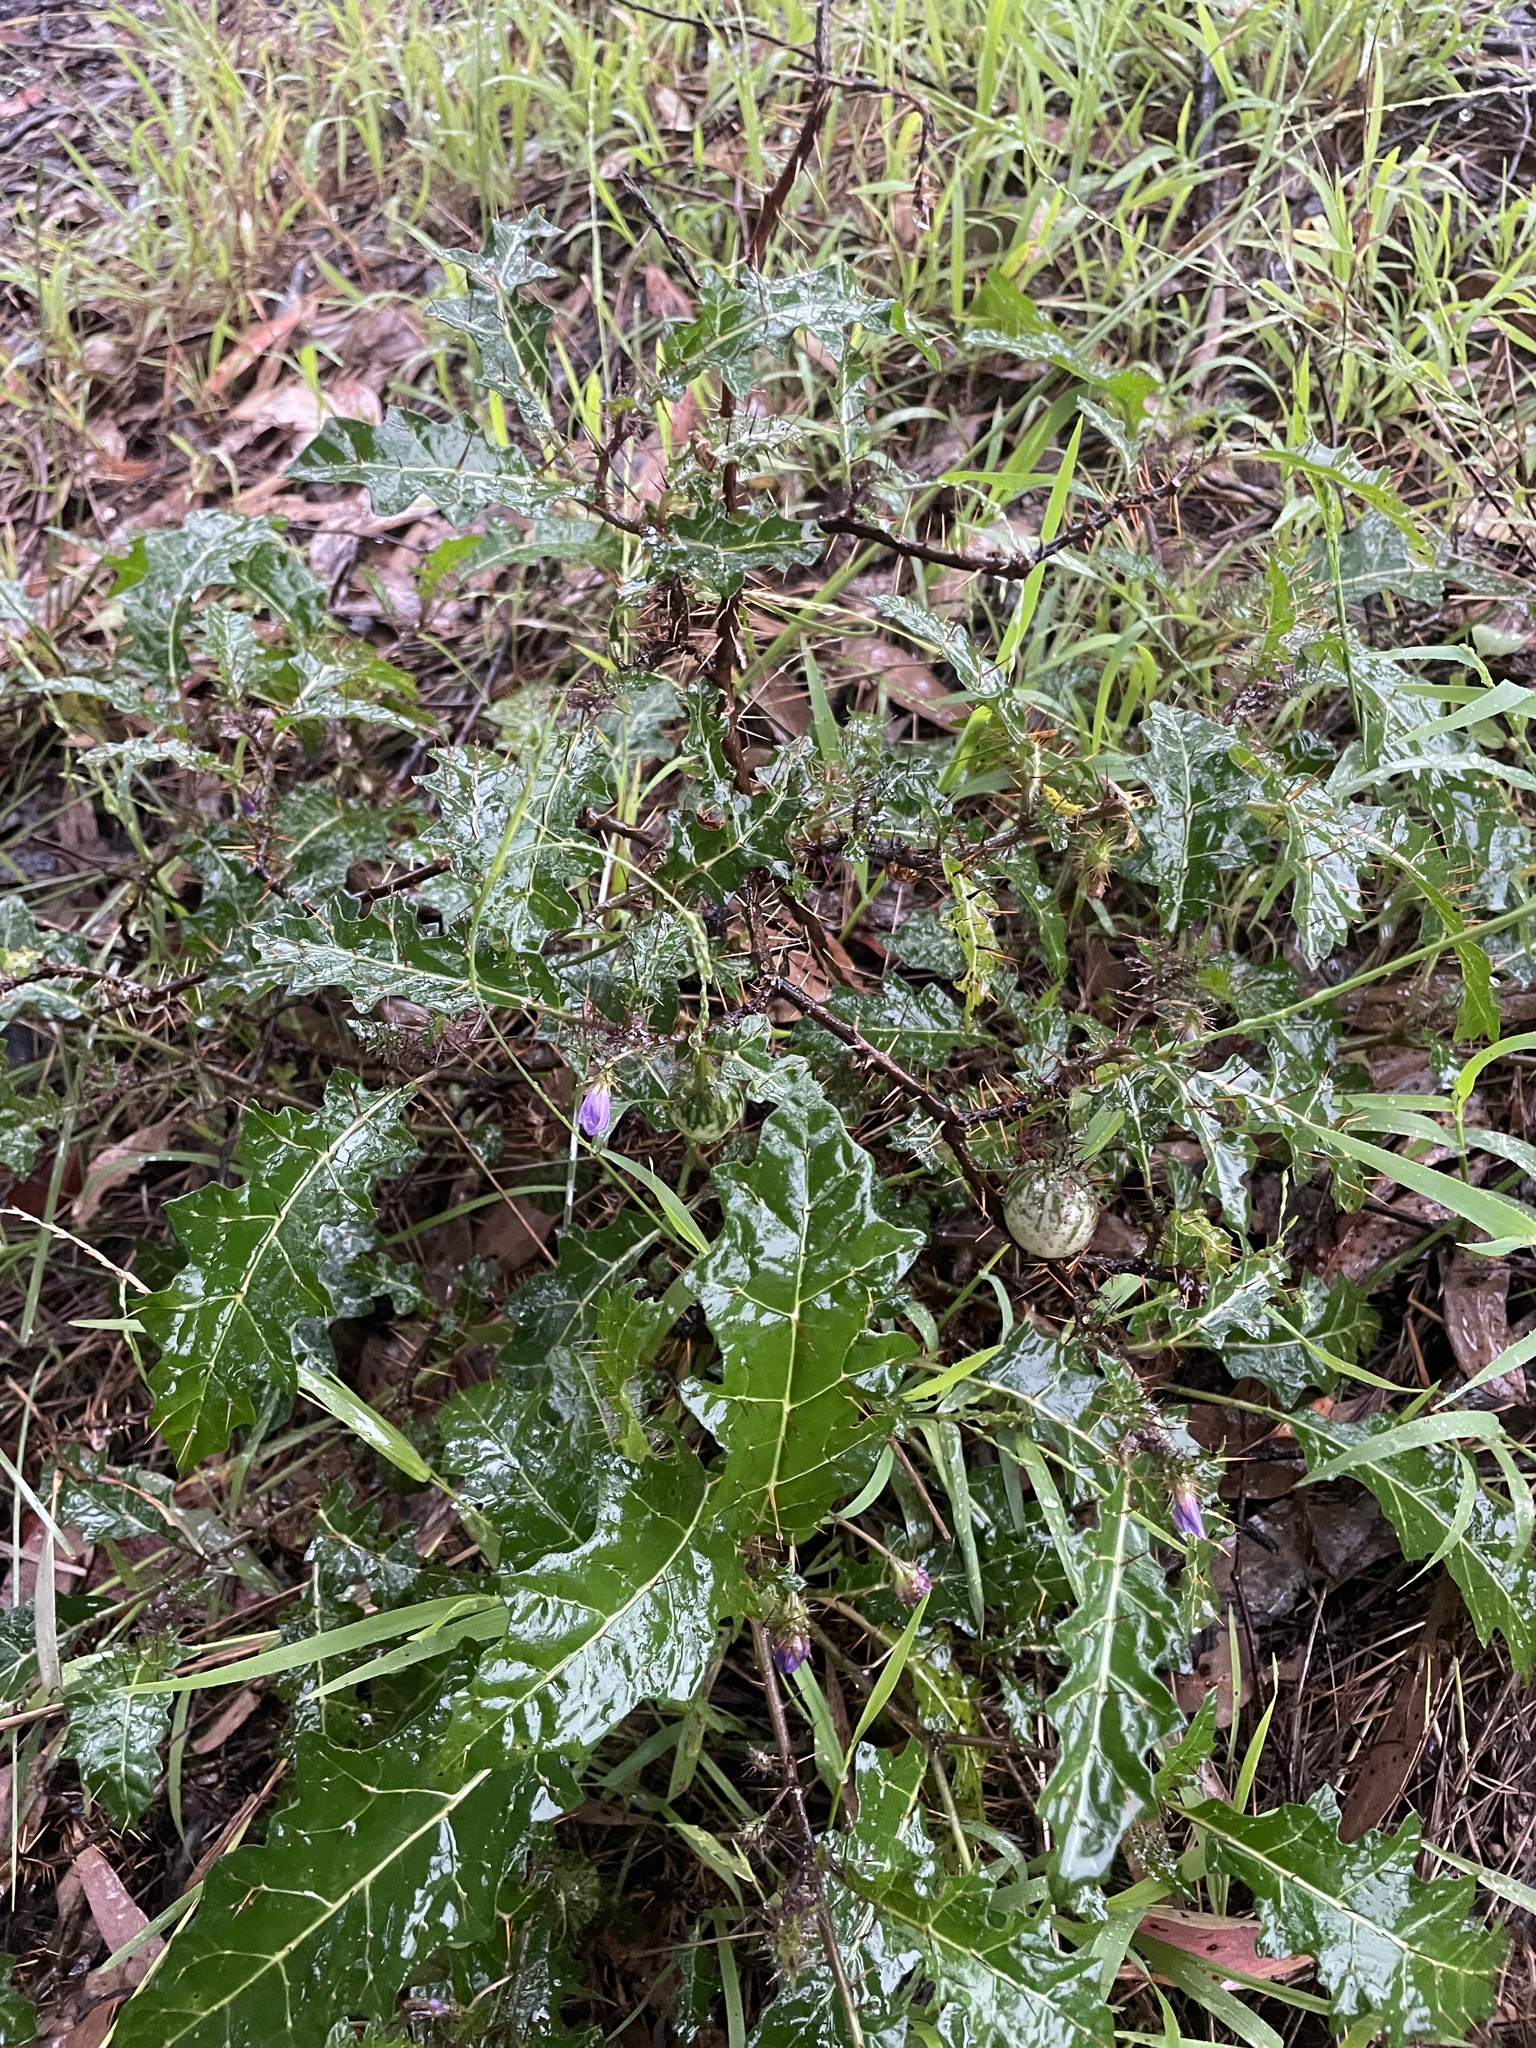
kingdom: Plantae
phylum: Tracheophyta
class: Magnoliopsida
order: Solanales
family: Solanaceae
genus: Solanum
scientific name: Solanum prinophyllum
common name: Forest nightshade
